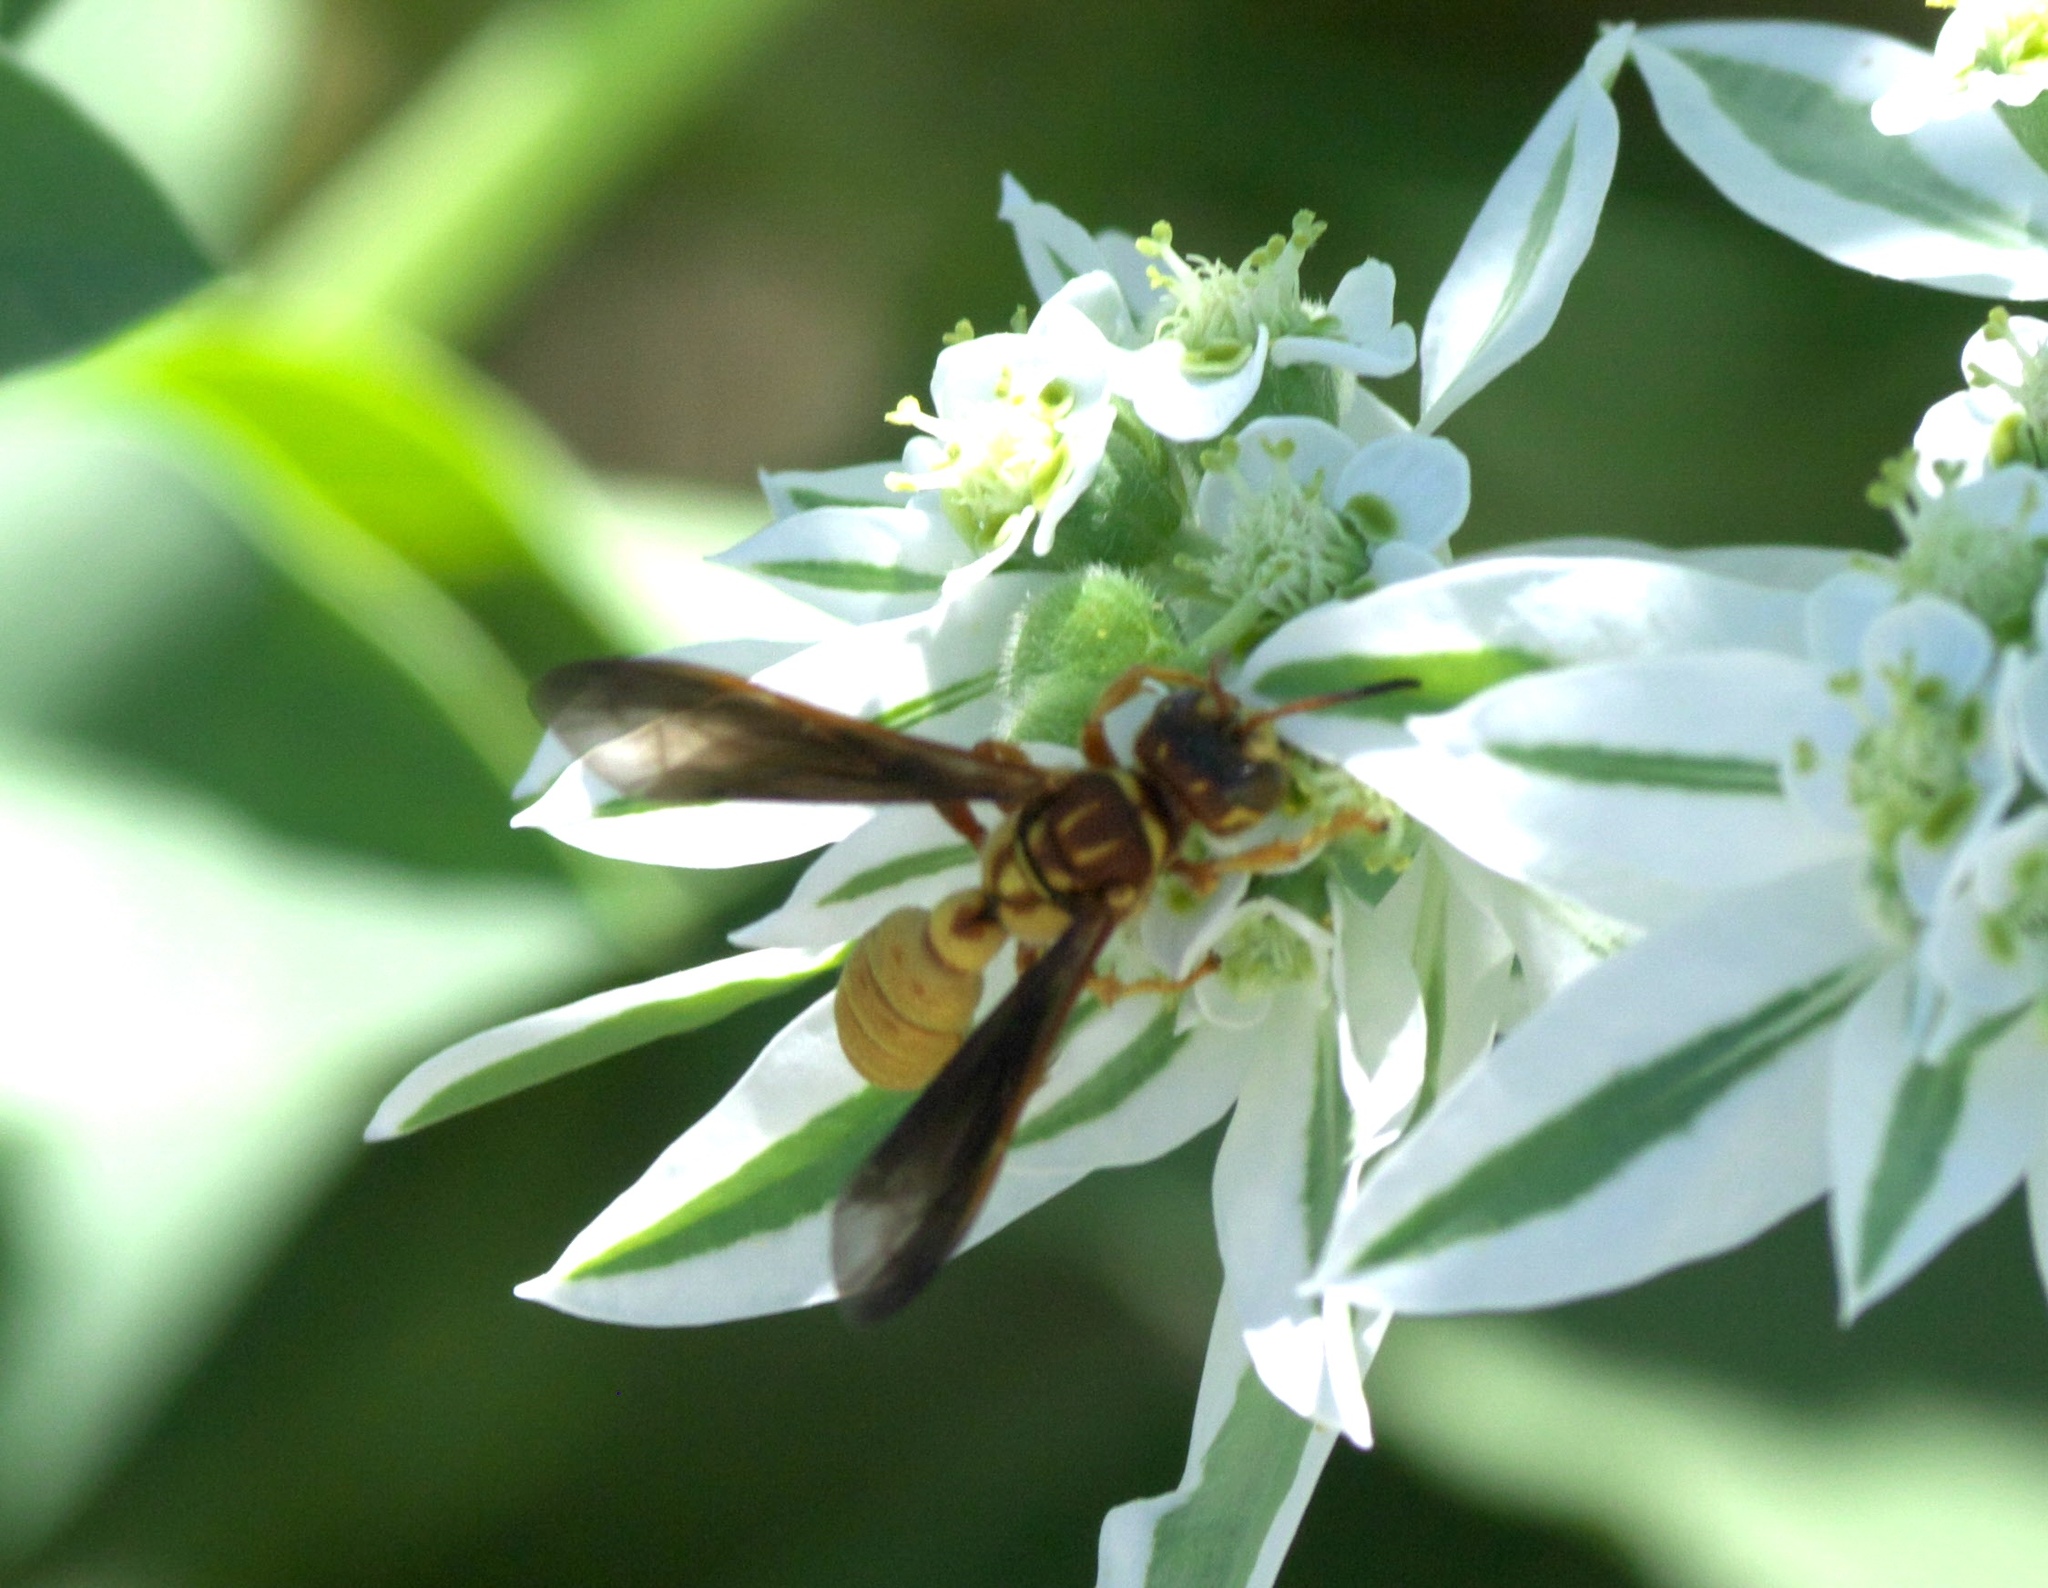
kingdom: Animalia
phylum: Arthropoda
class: Insecta
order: Hymenoptera
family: Crabronidae
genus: Cerceris
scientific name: Cerceris intricata
